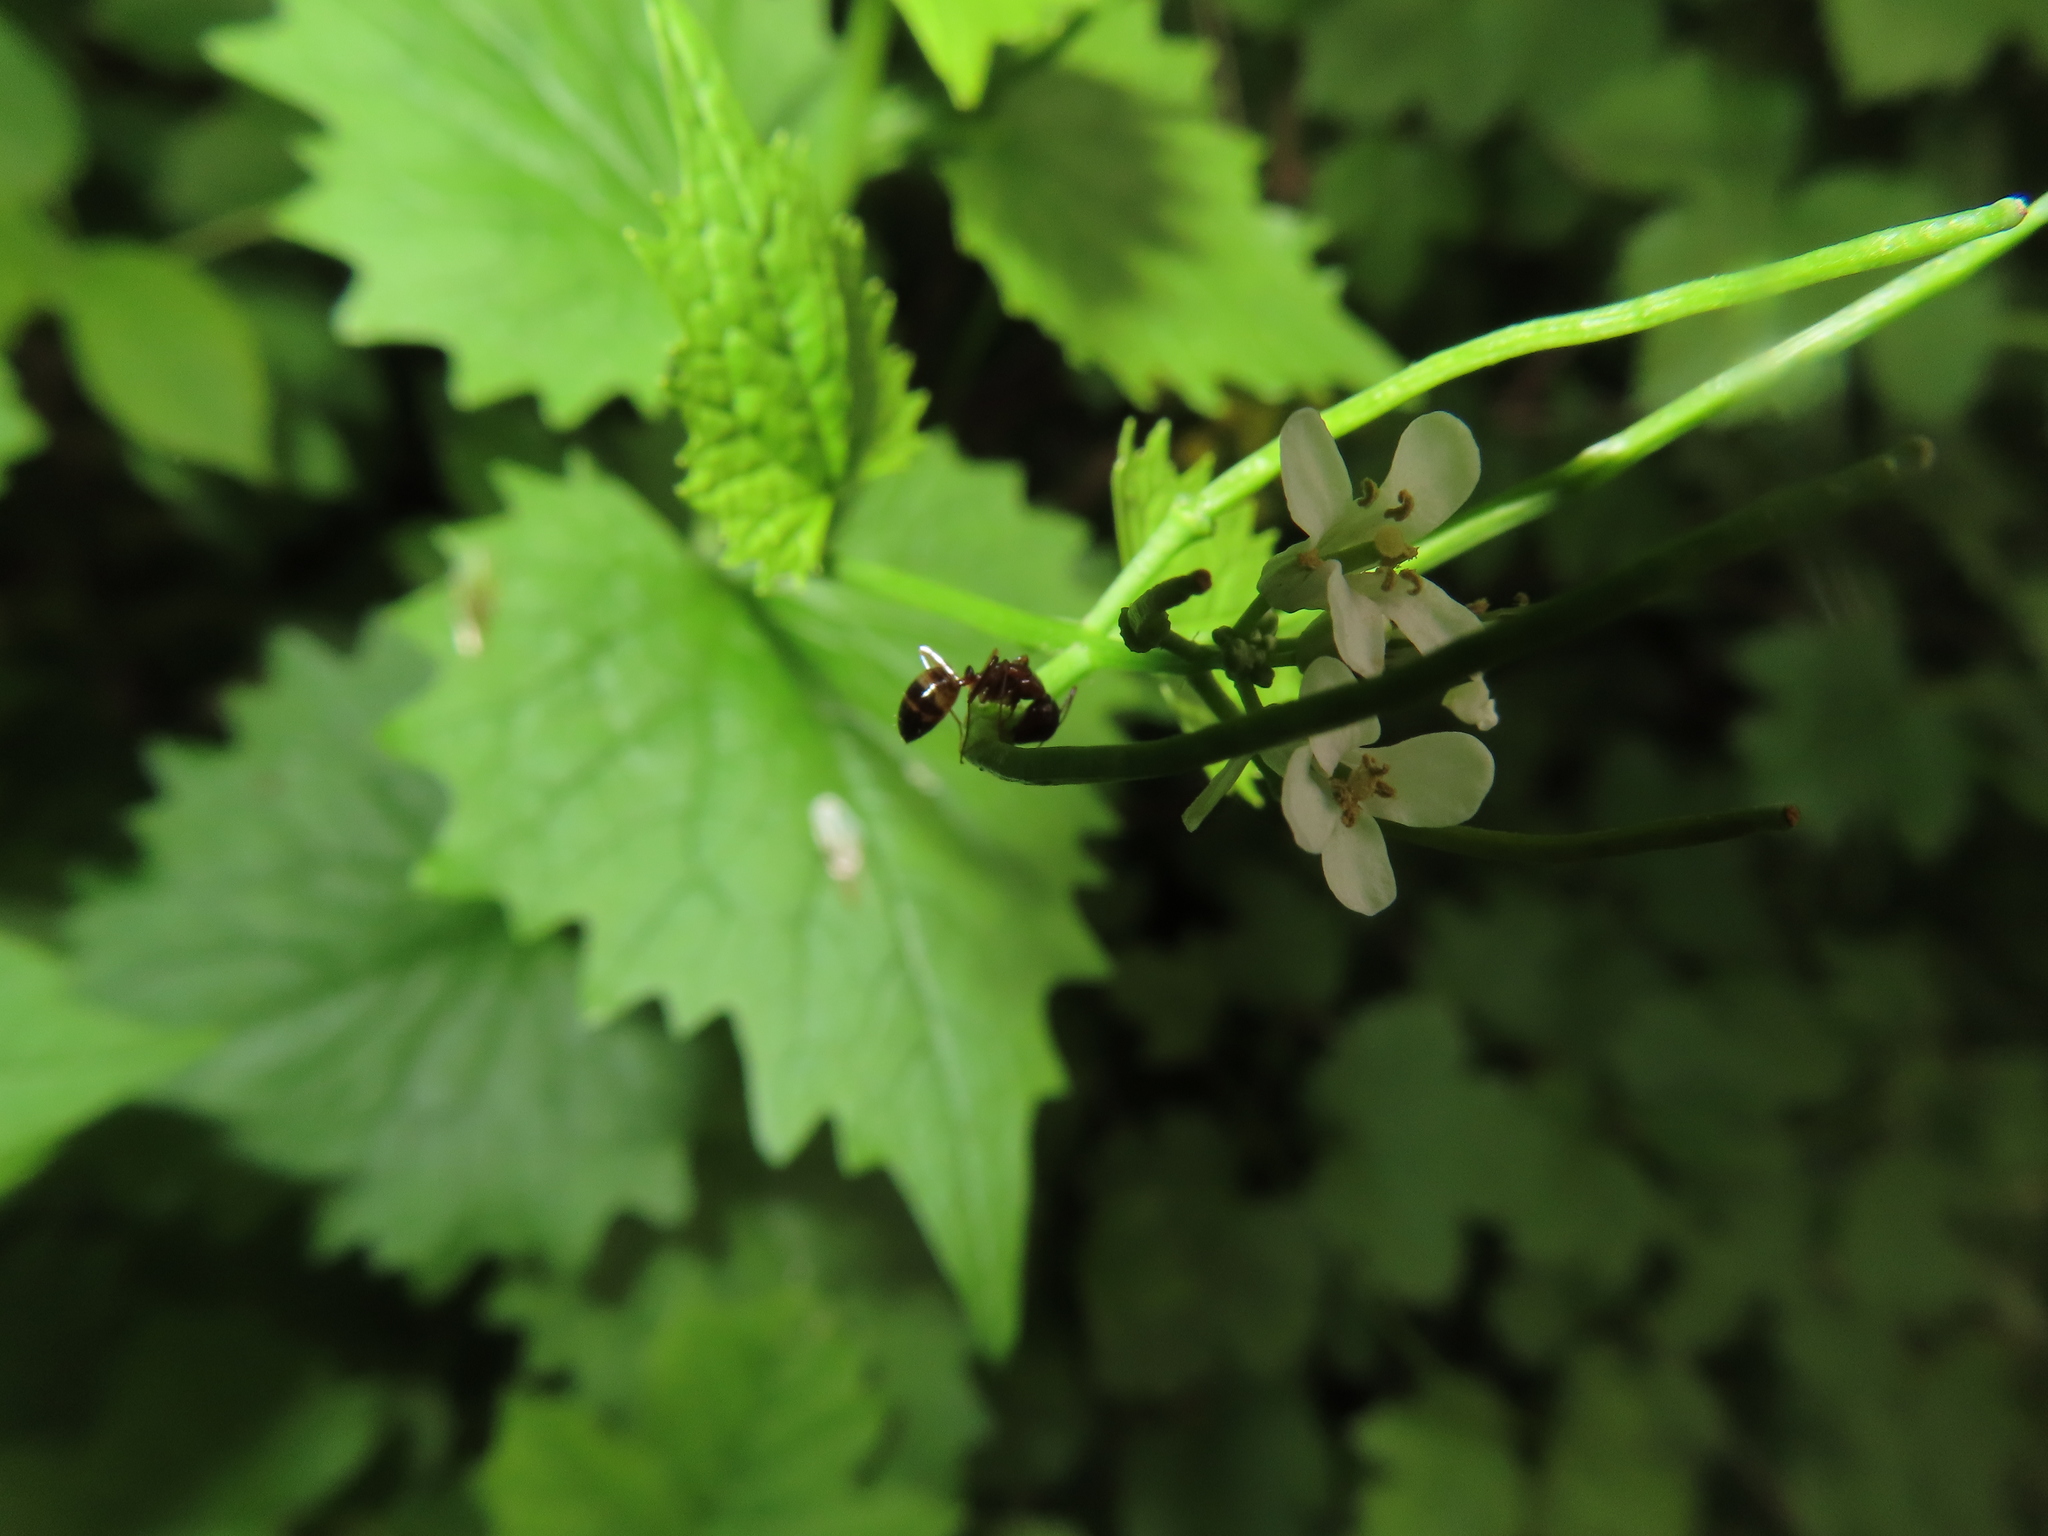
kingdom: Animalia
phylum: Arthropoda
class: Insecta
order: Hymenoptera
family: Formicidae
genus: Camponotus
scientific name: Camponotus subbarbatus
